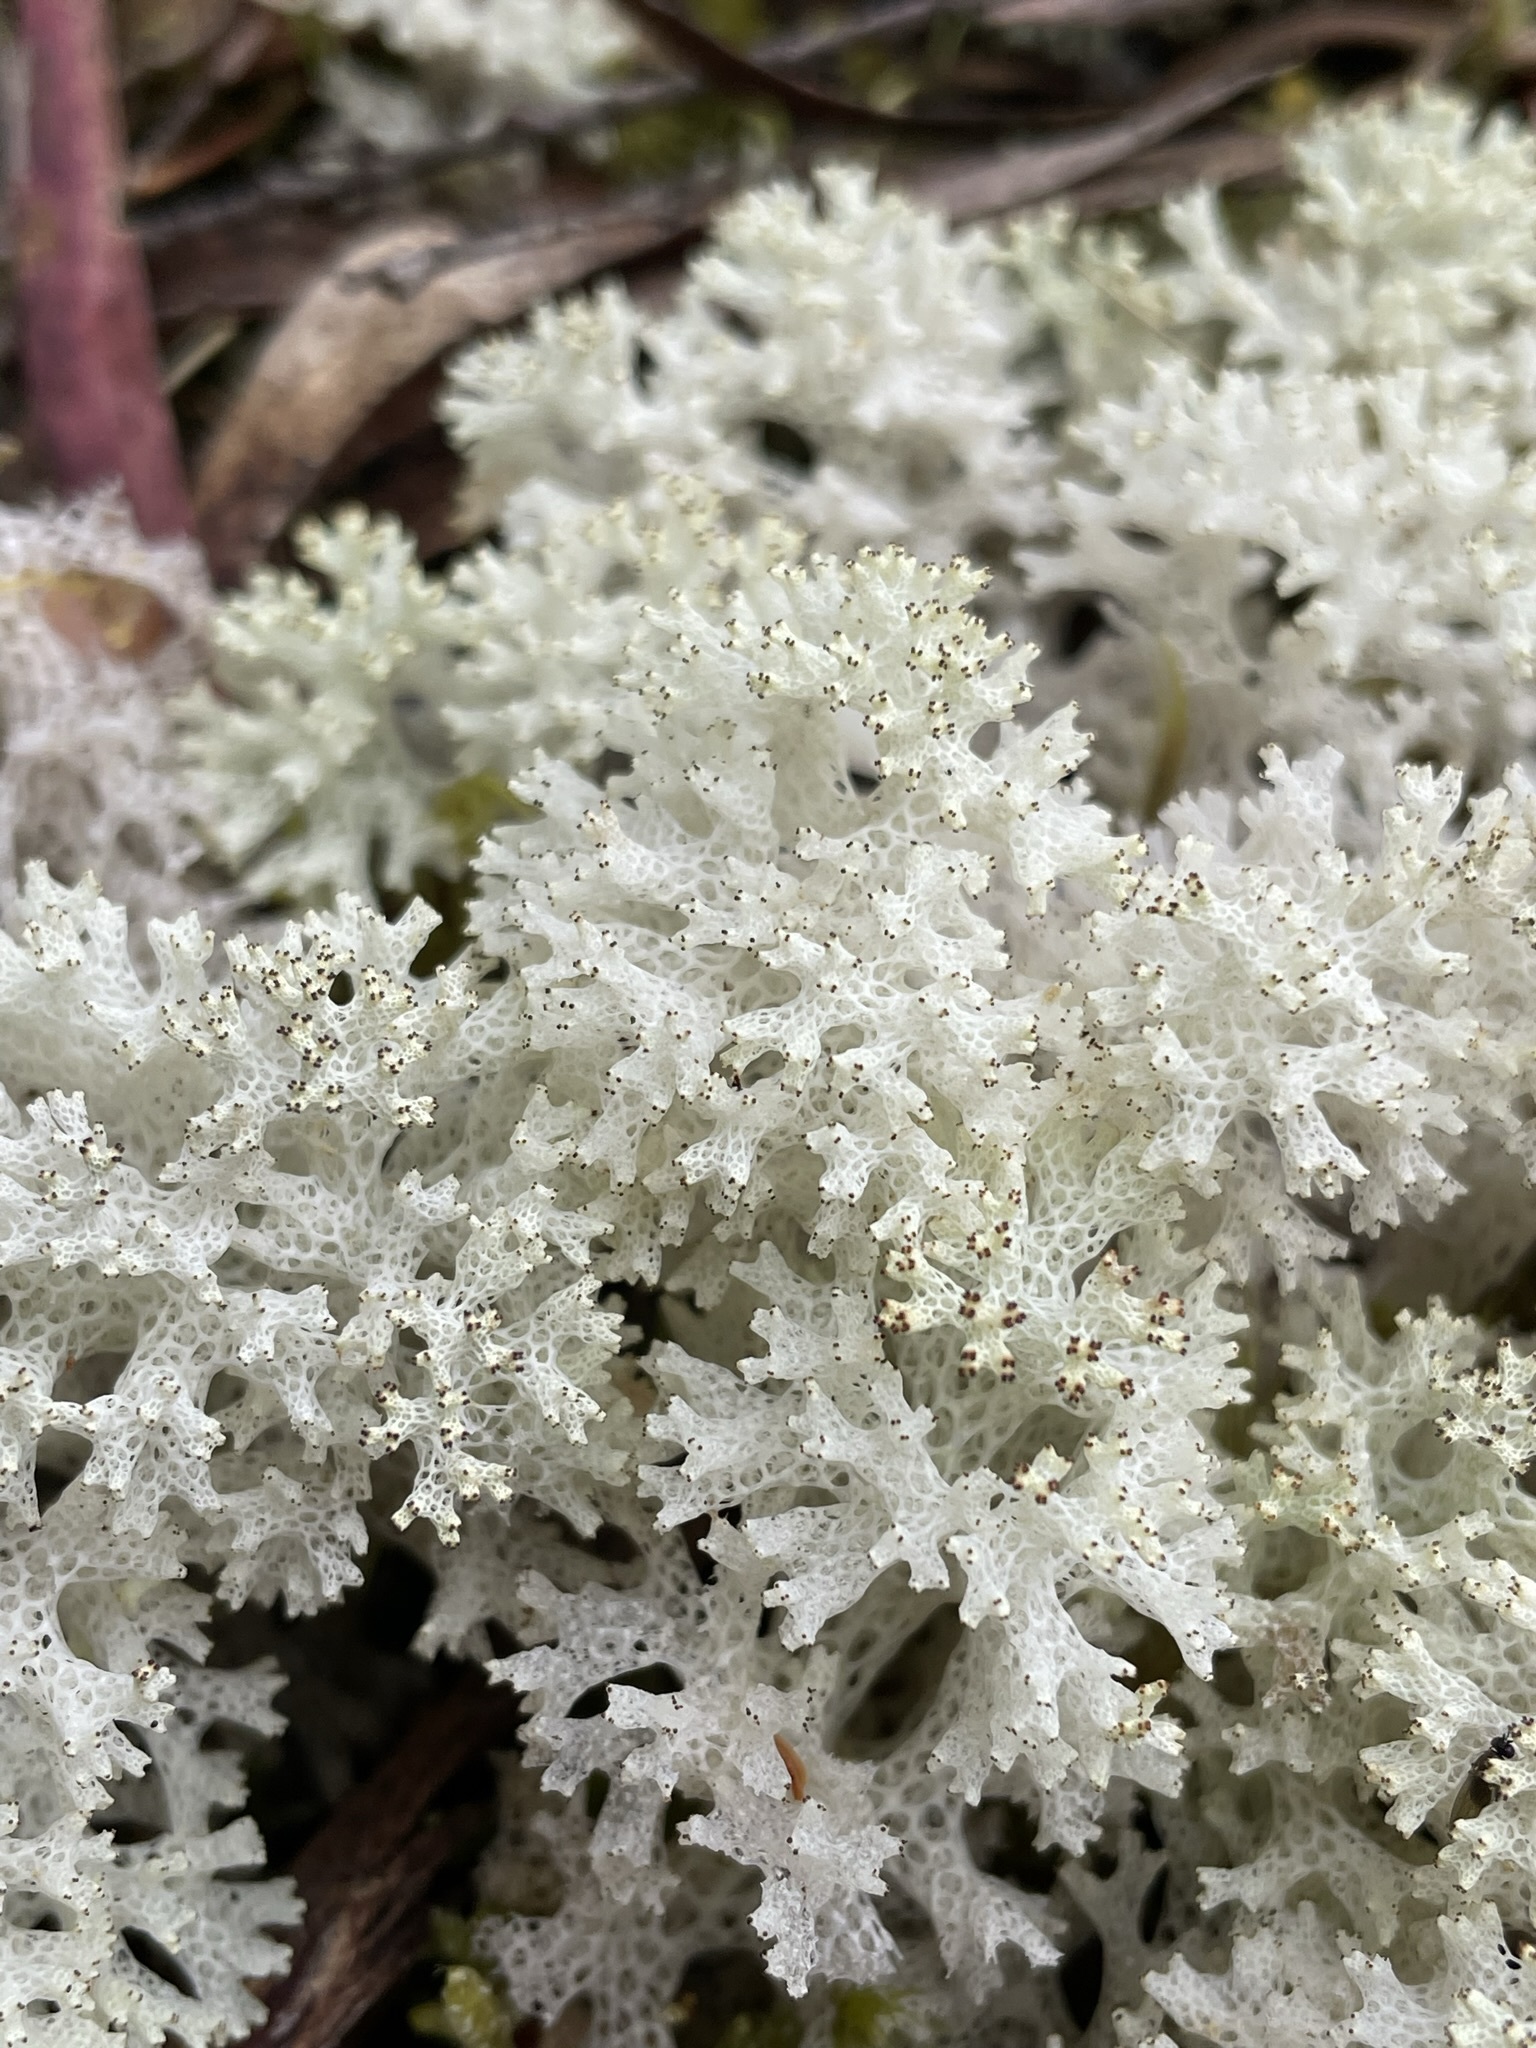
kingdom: Fungi
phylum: Ascomycota
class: Lecanoromycetes
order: Lecanorales
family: Cladoniaceae
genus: Pulchrocladia
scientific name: Pulchrocladia retipora
